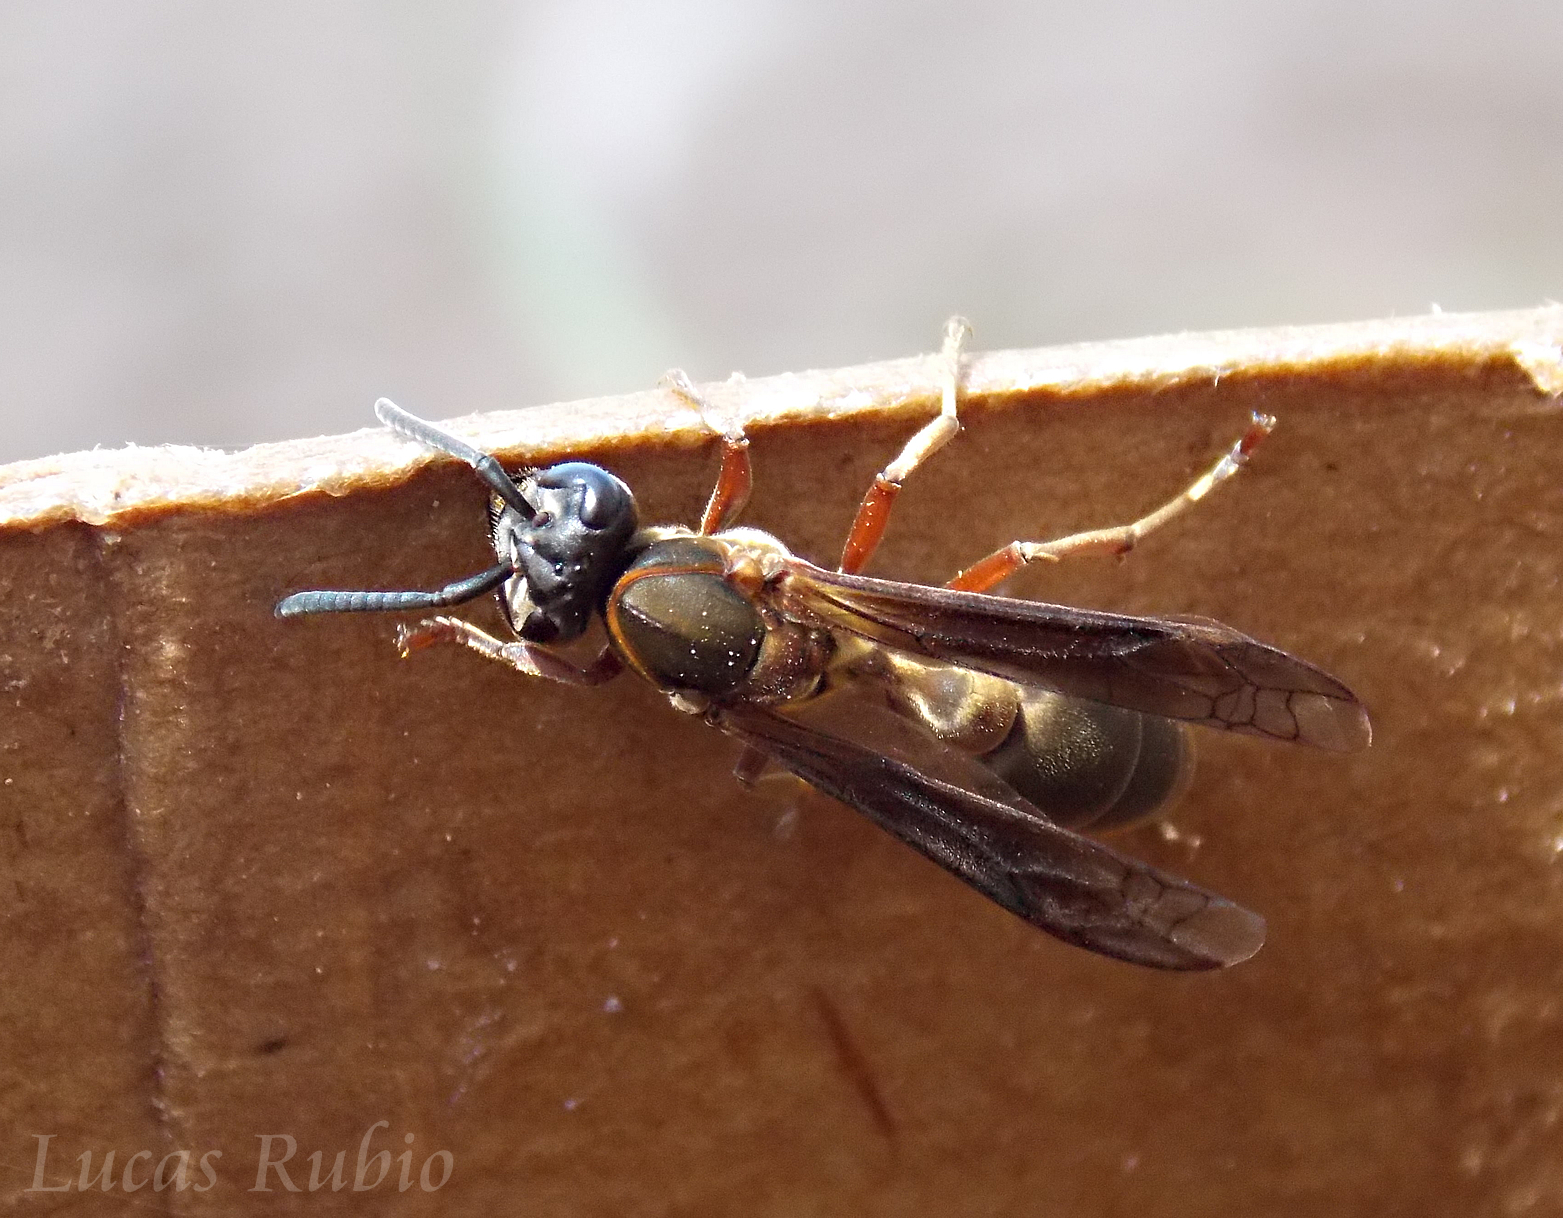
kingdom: Animalia
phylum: Arthropoda
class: Insecta
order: Hymenoptera
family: Eumenidae
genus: Polybia
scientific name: Polybia sericea
